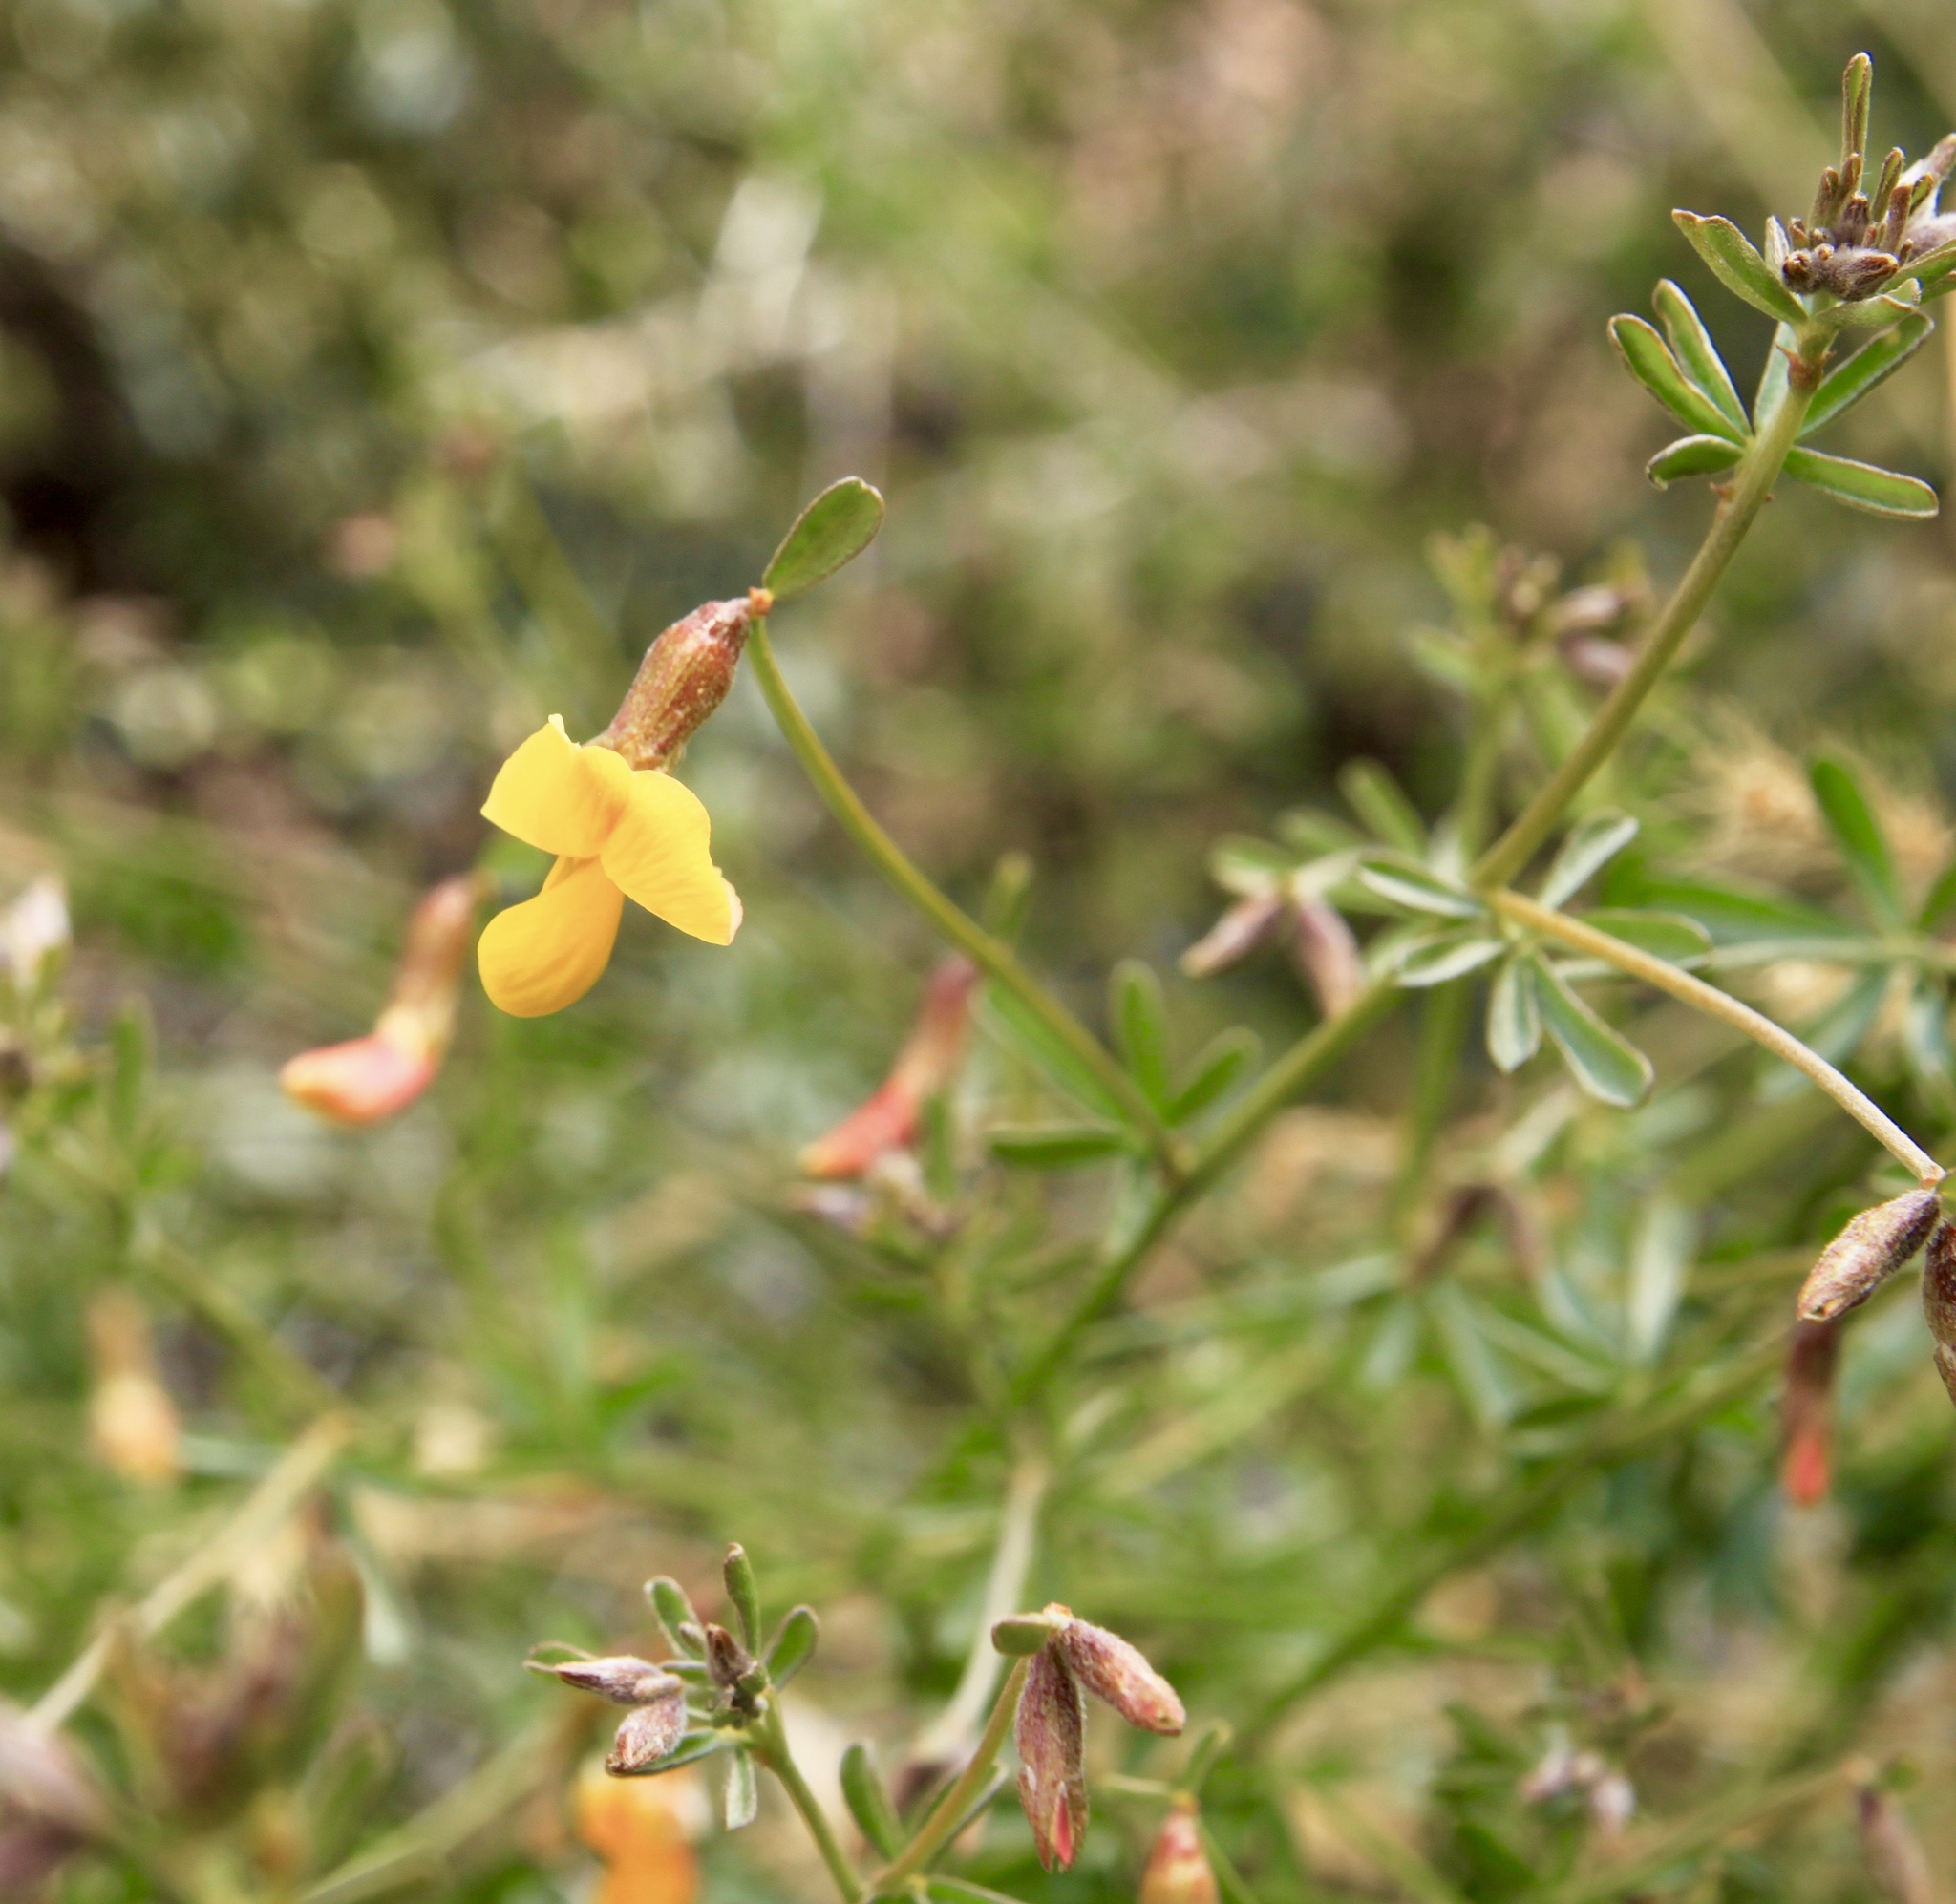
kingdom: Plantae
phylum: Tracheophyta
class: Magnoliopsida
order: Fabales
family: Fabaceae
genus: Acmispon
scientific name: Acmispon rigidus
